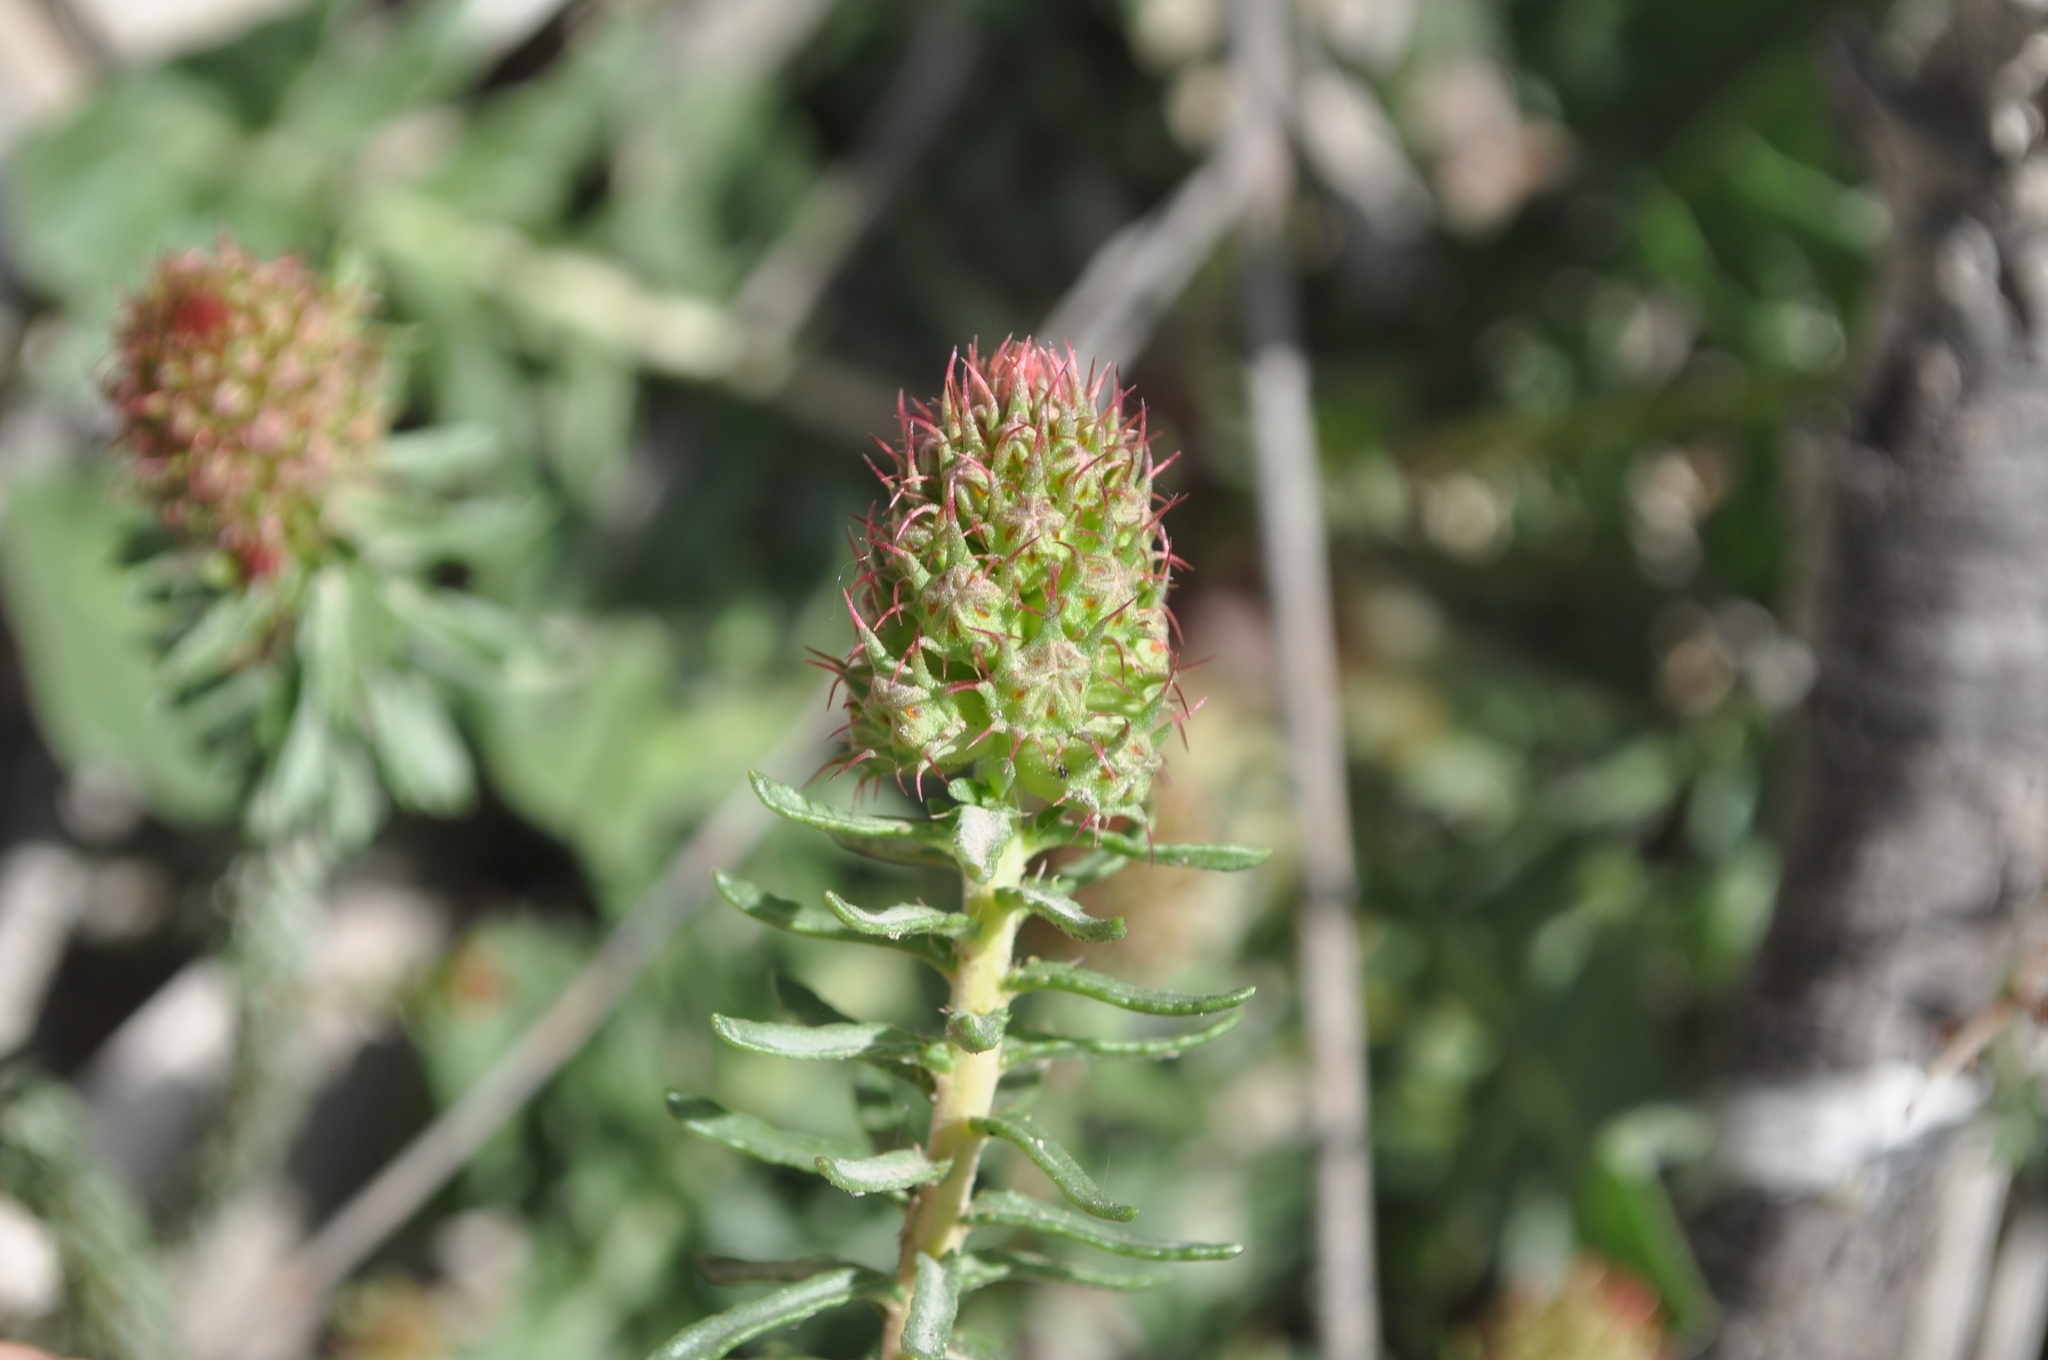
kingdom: Plantae
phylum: Tracheophyta
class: Magnoliopsida
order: Ericales
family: Primulaceae
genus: Coris
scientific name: Coris monspeliensis
